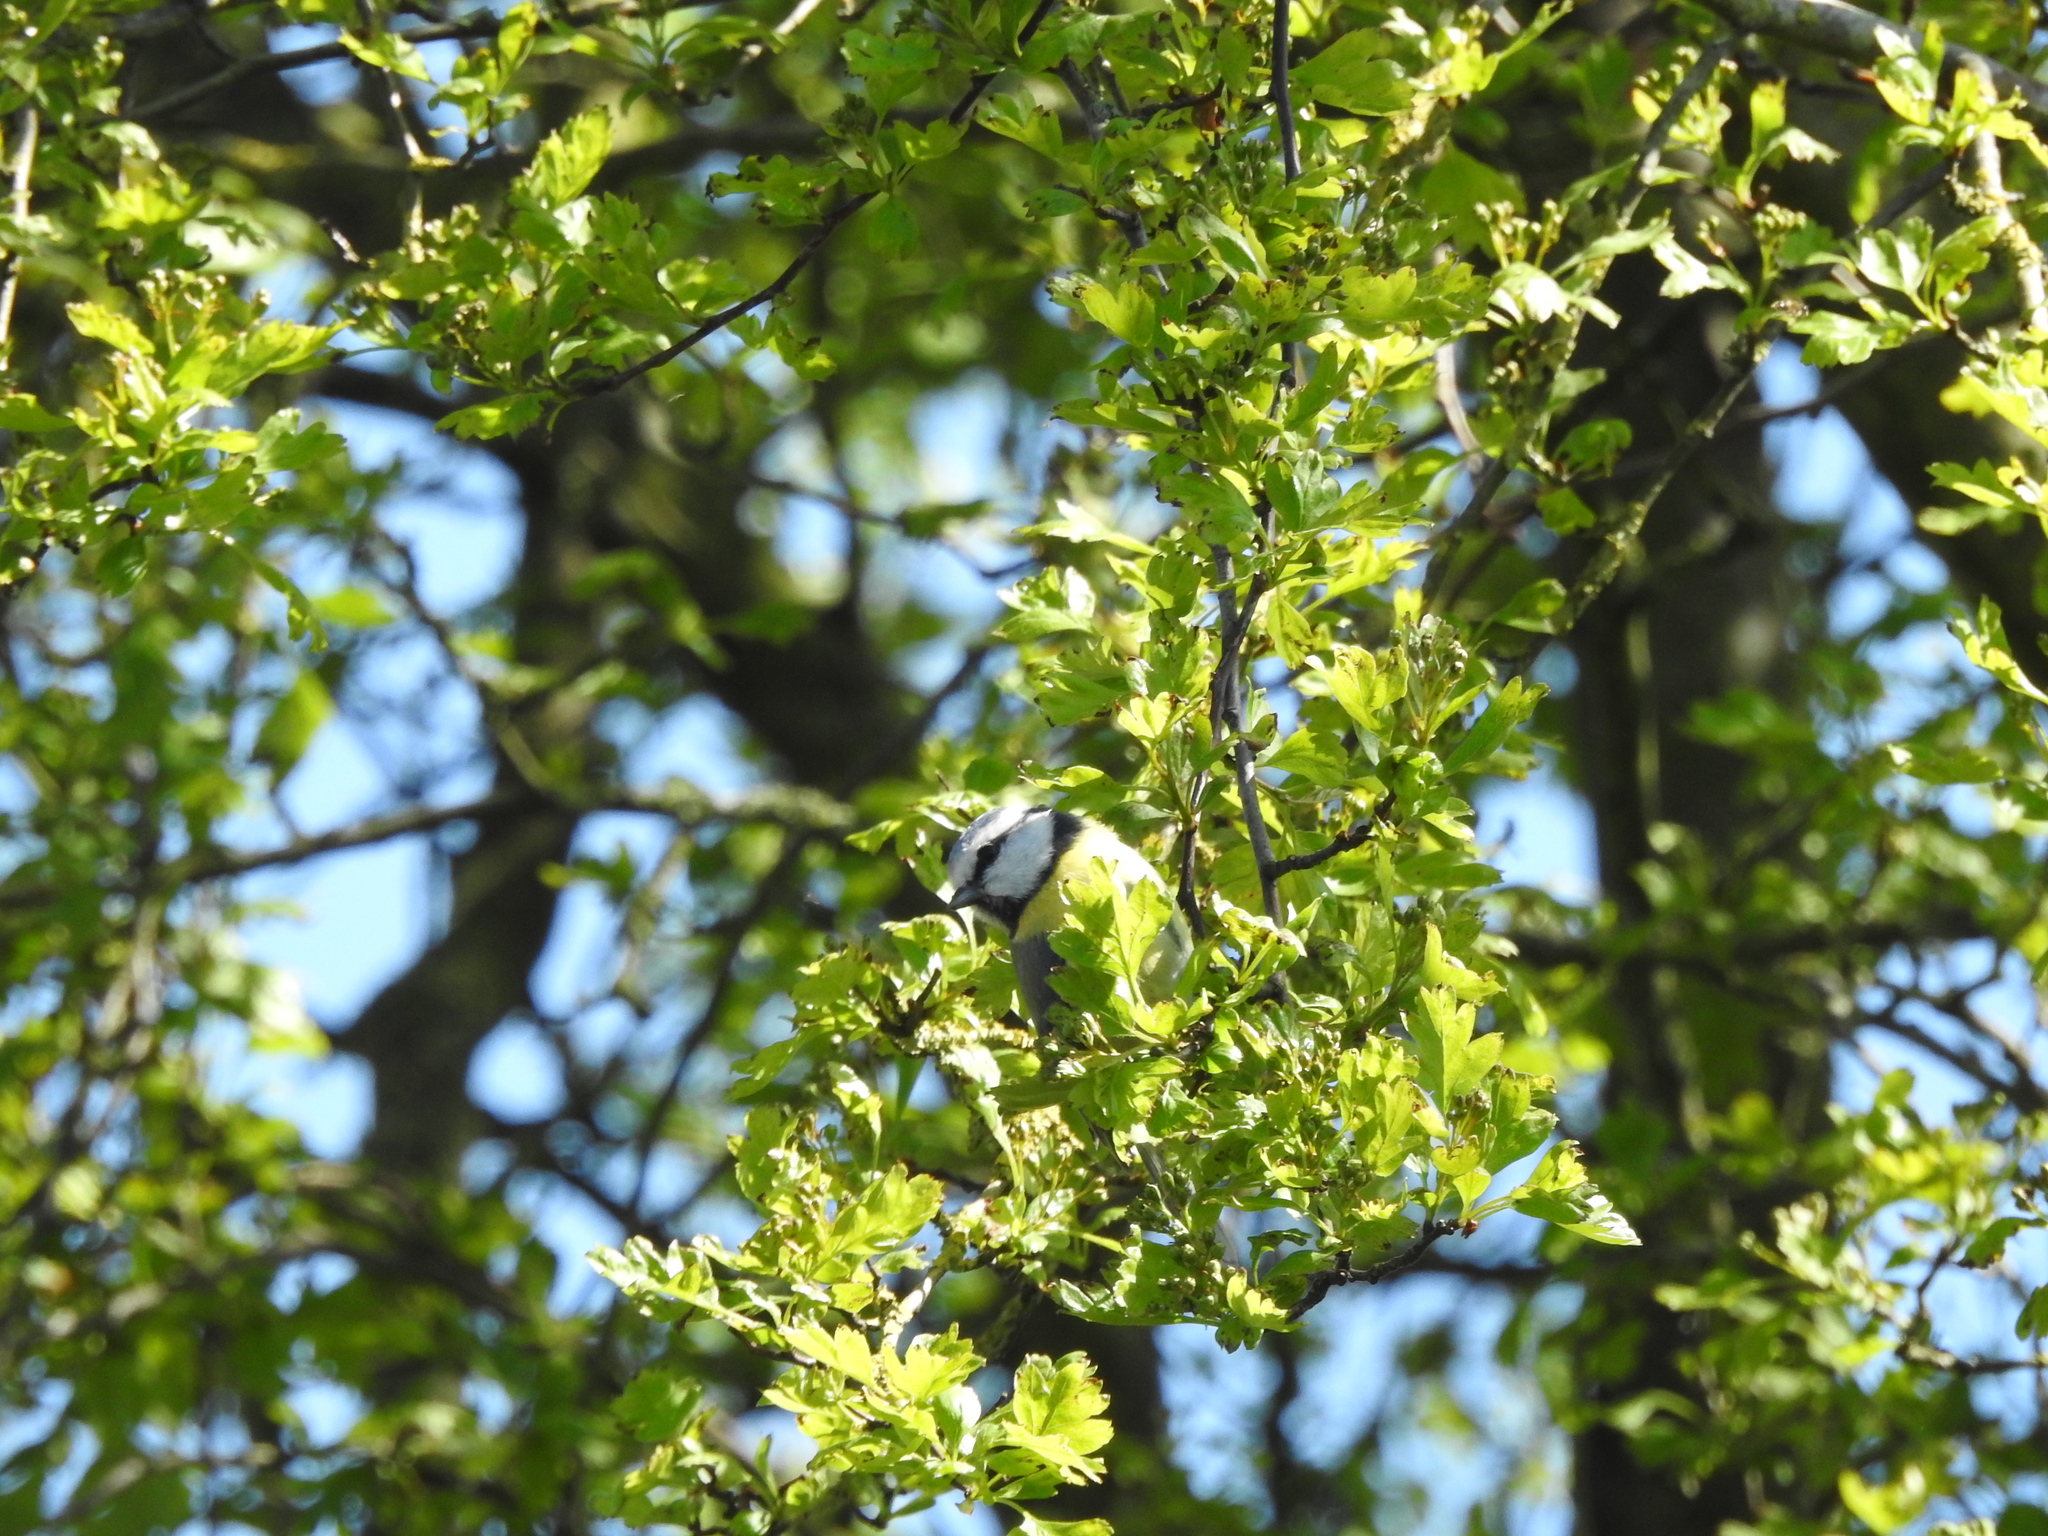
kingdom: Animalia
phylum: Chordata
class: Aves
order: Passeriformes
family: Paridae
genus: Cyanistes
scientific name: Cyanistes caeruleus
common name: Eurasian blue tit
